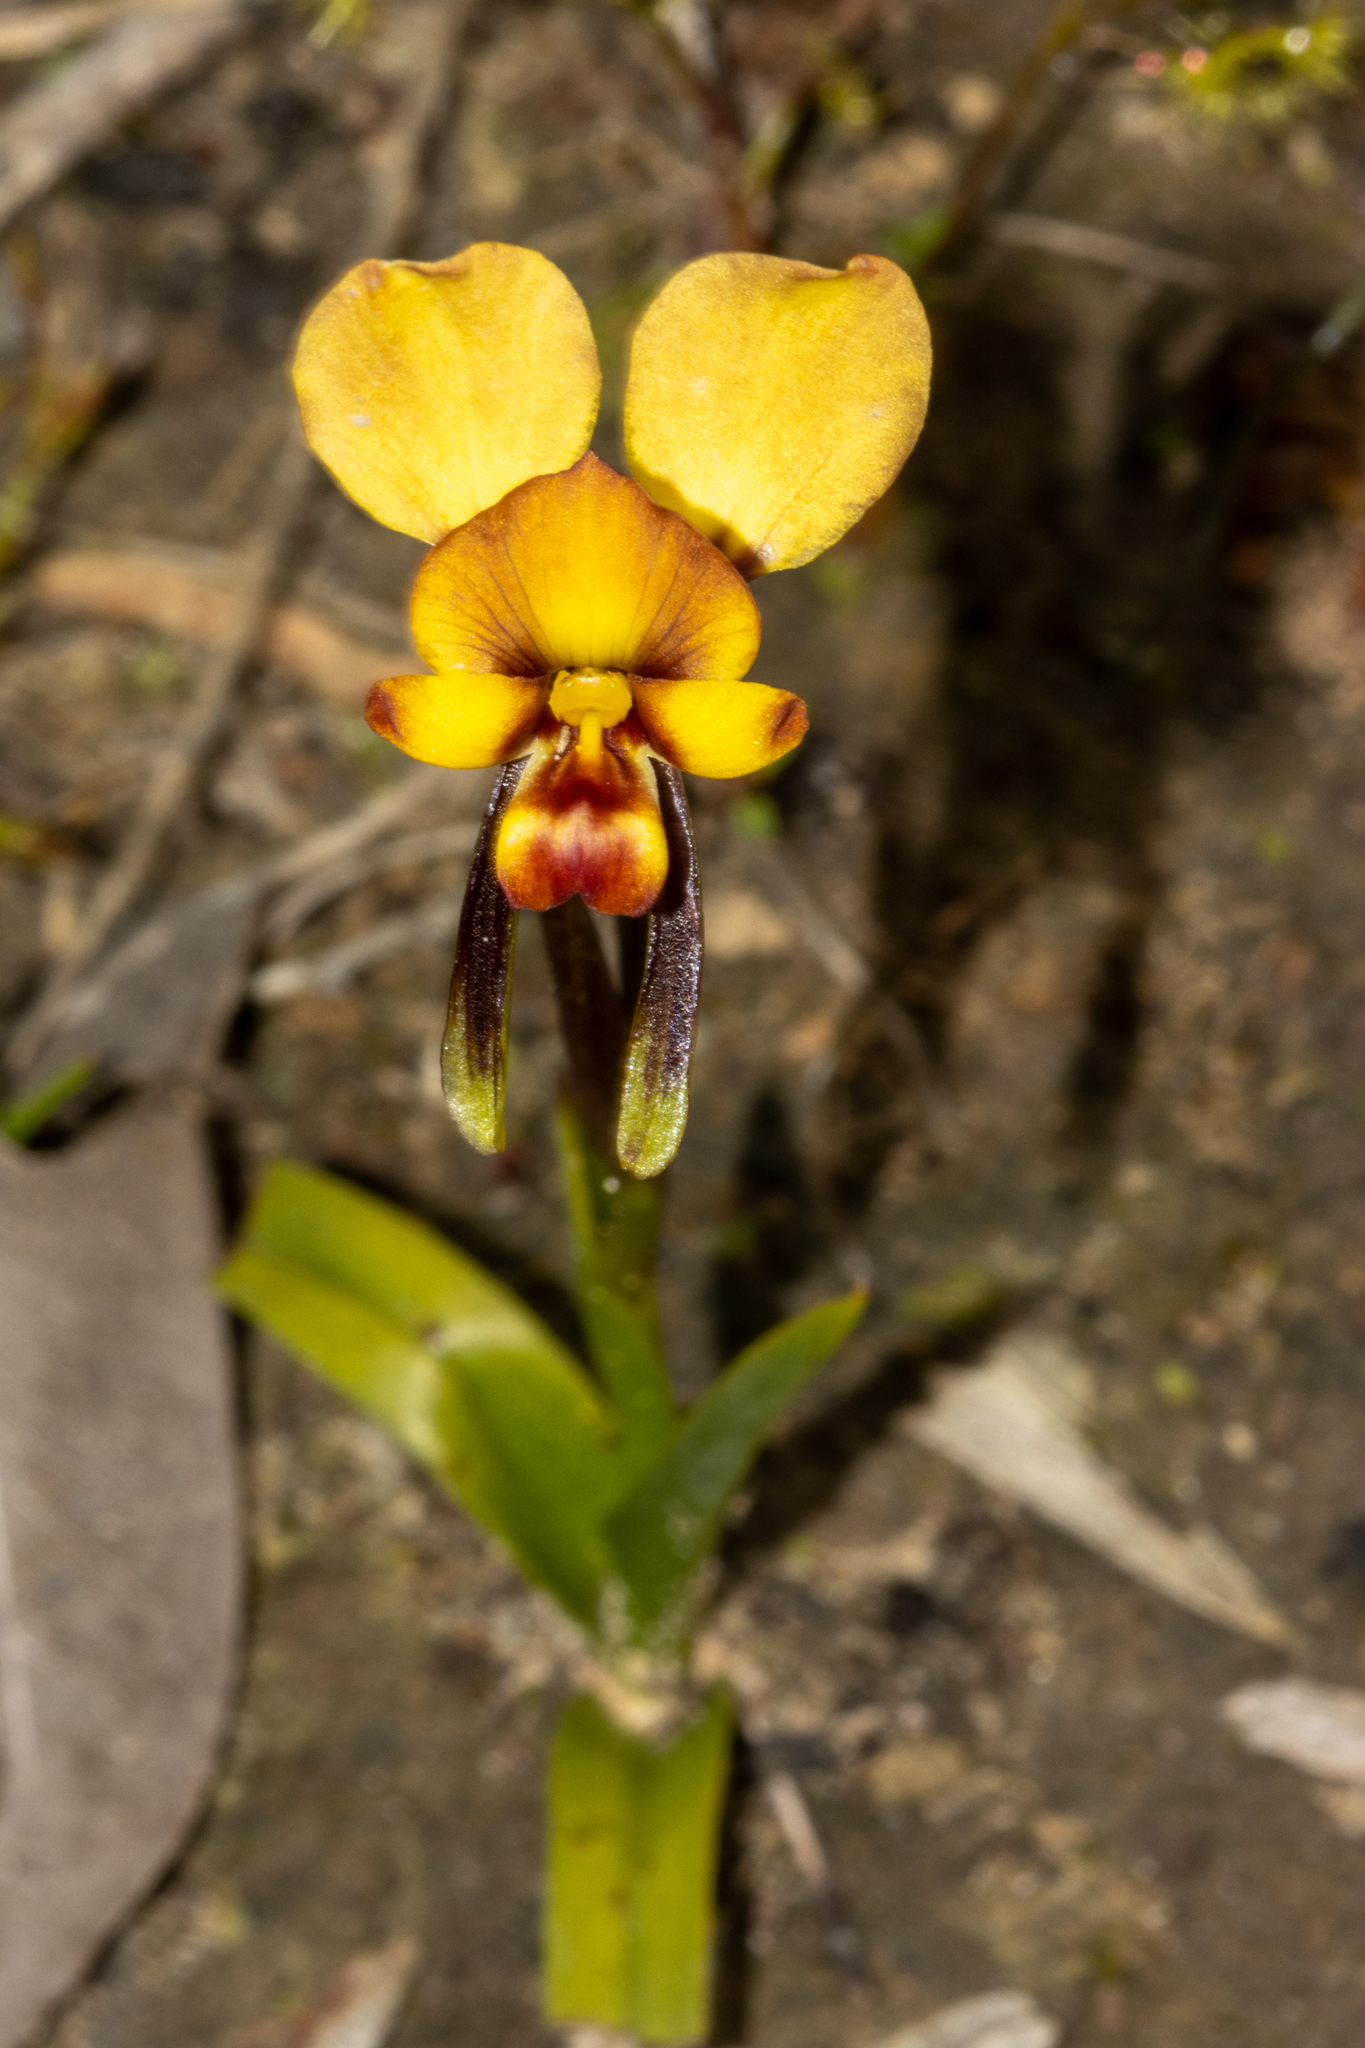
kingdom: Plantae
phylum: Tracheophyta
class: Liliopsida
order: Asparagales
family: Orchidaceae
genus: Diuris
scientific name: Diuris orientis
